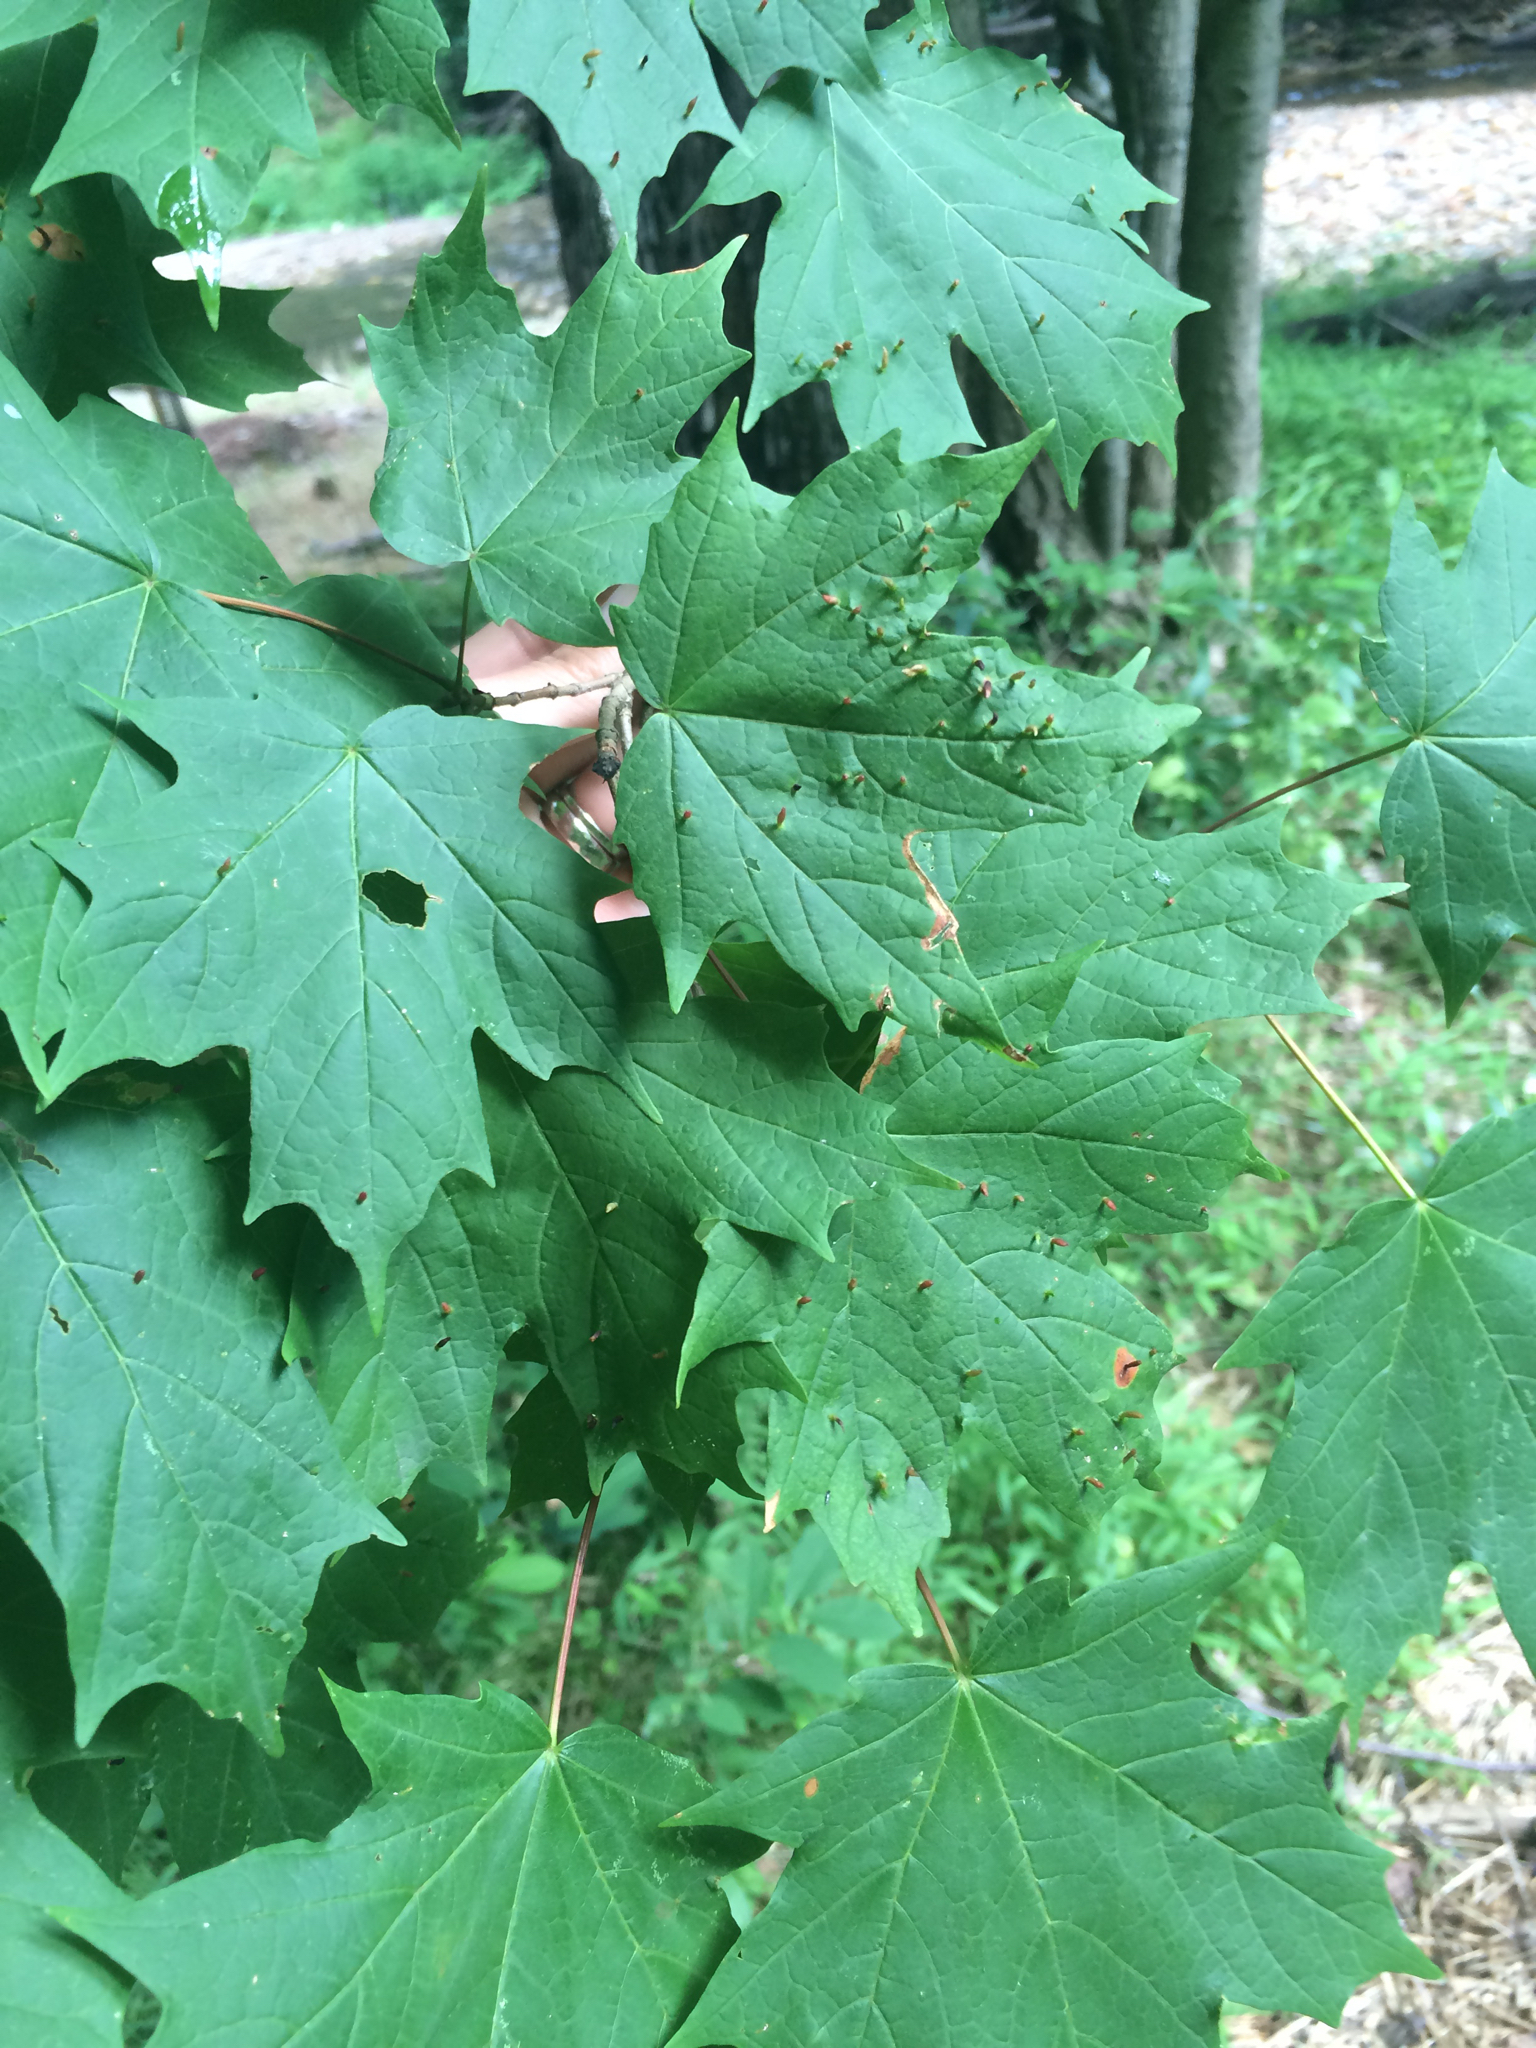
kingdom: Plantae
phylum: Tracheophyta
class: Magnoliopsida
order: Sapindales
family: Sapindaceae
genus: Acer
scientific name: Acer saccharum
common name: Sugar maple
